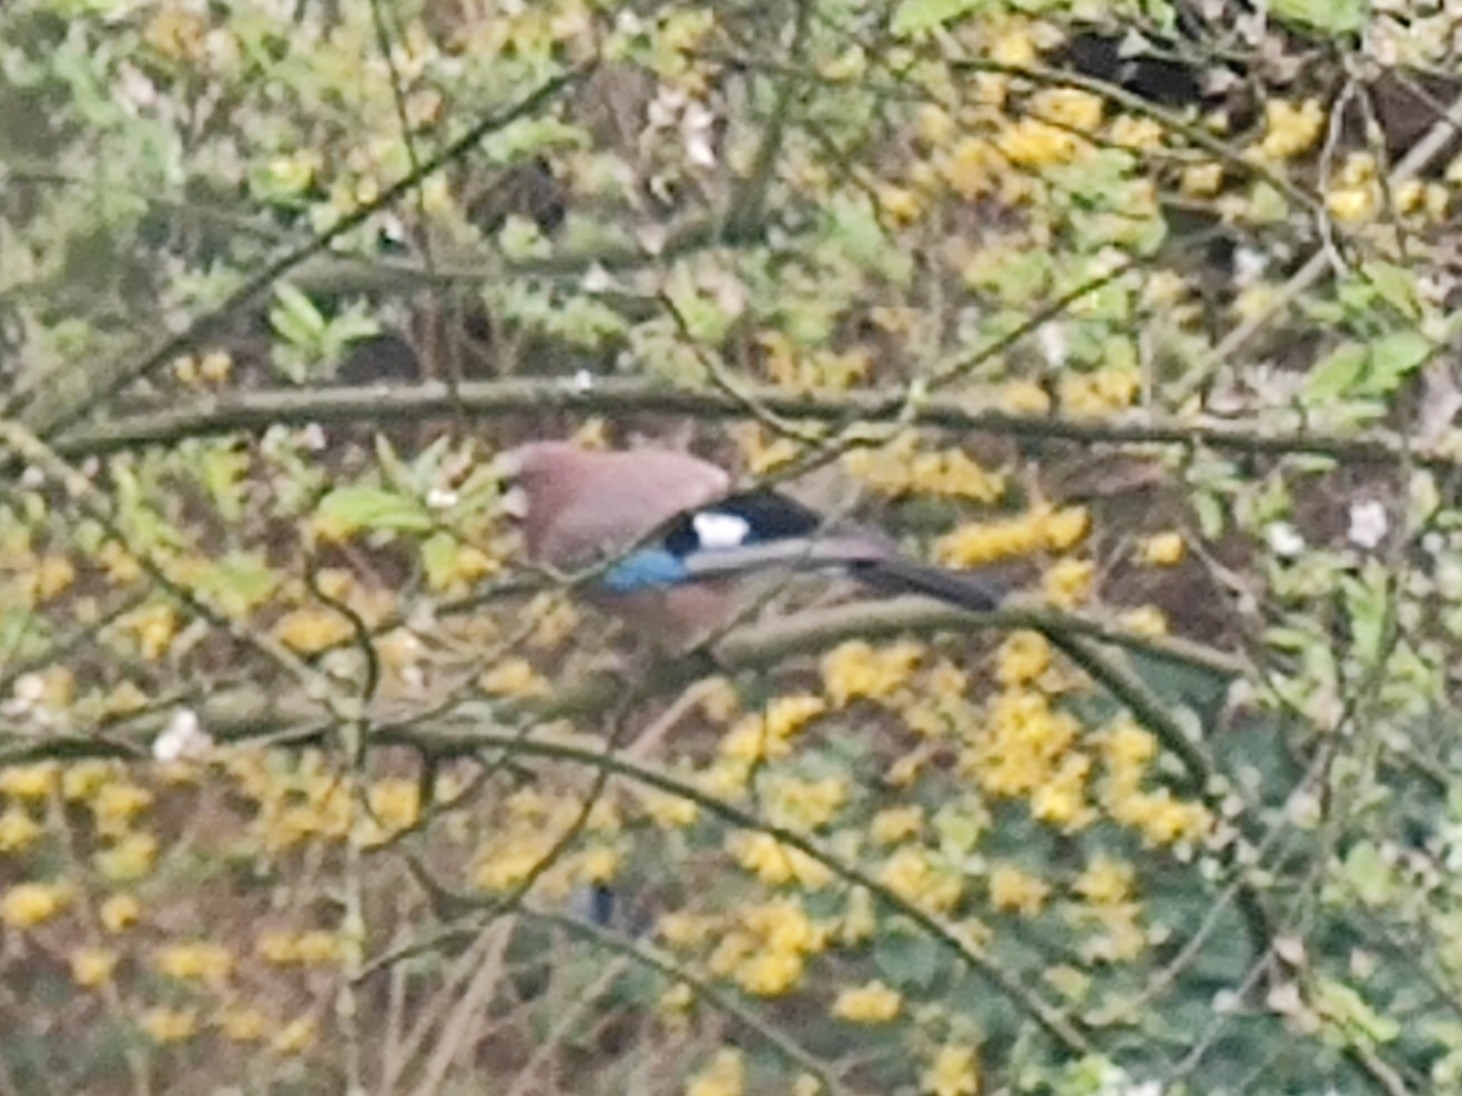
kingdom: Animalia
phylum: Chordata
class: Aves
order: Passeriformes
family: Corvidae
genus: Garrulus
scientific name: Garrulus glandarius
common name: Eurasian jay
